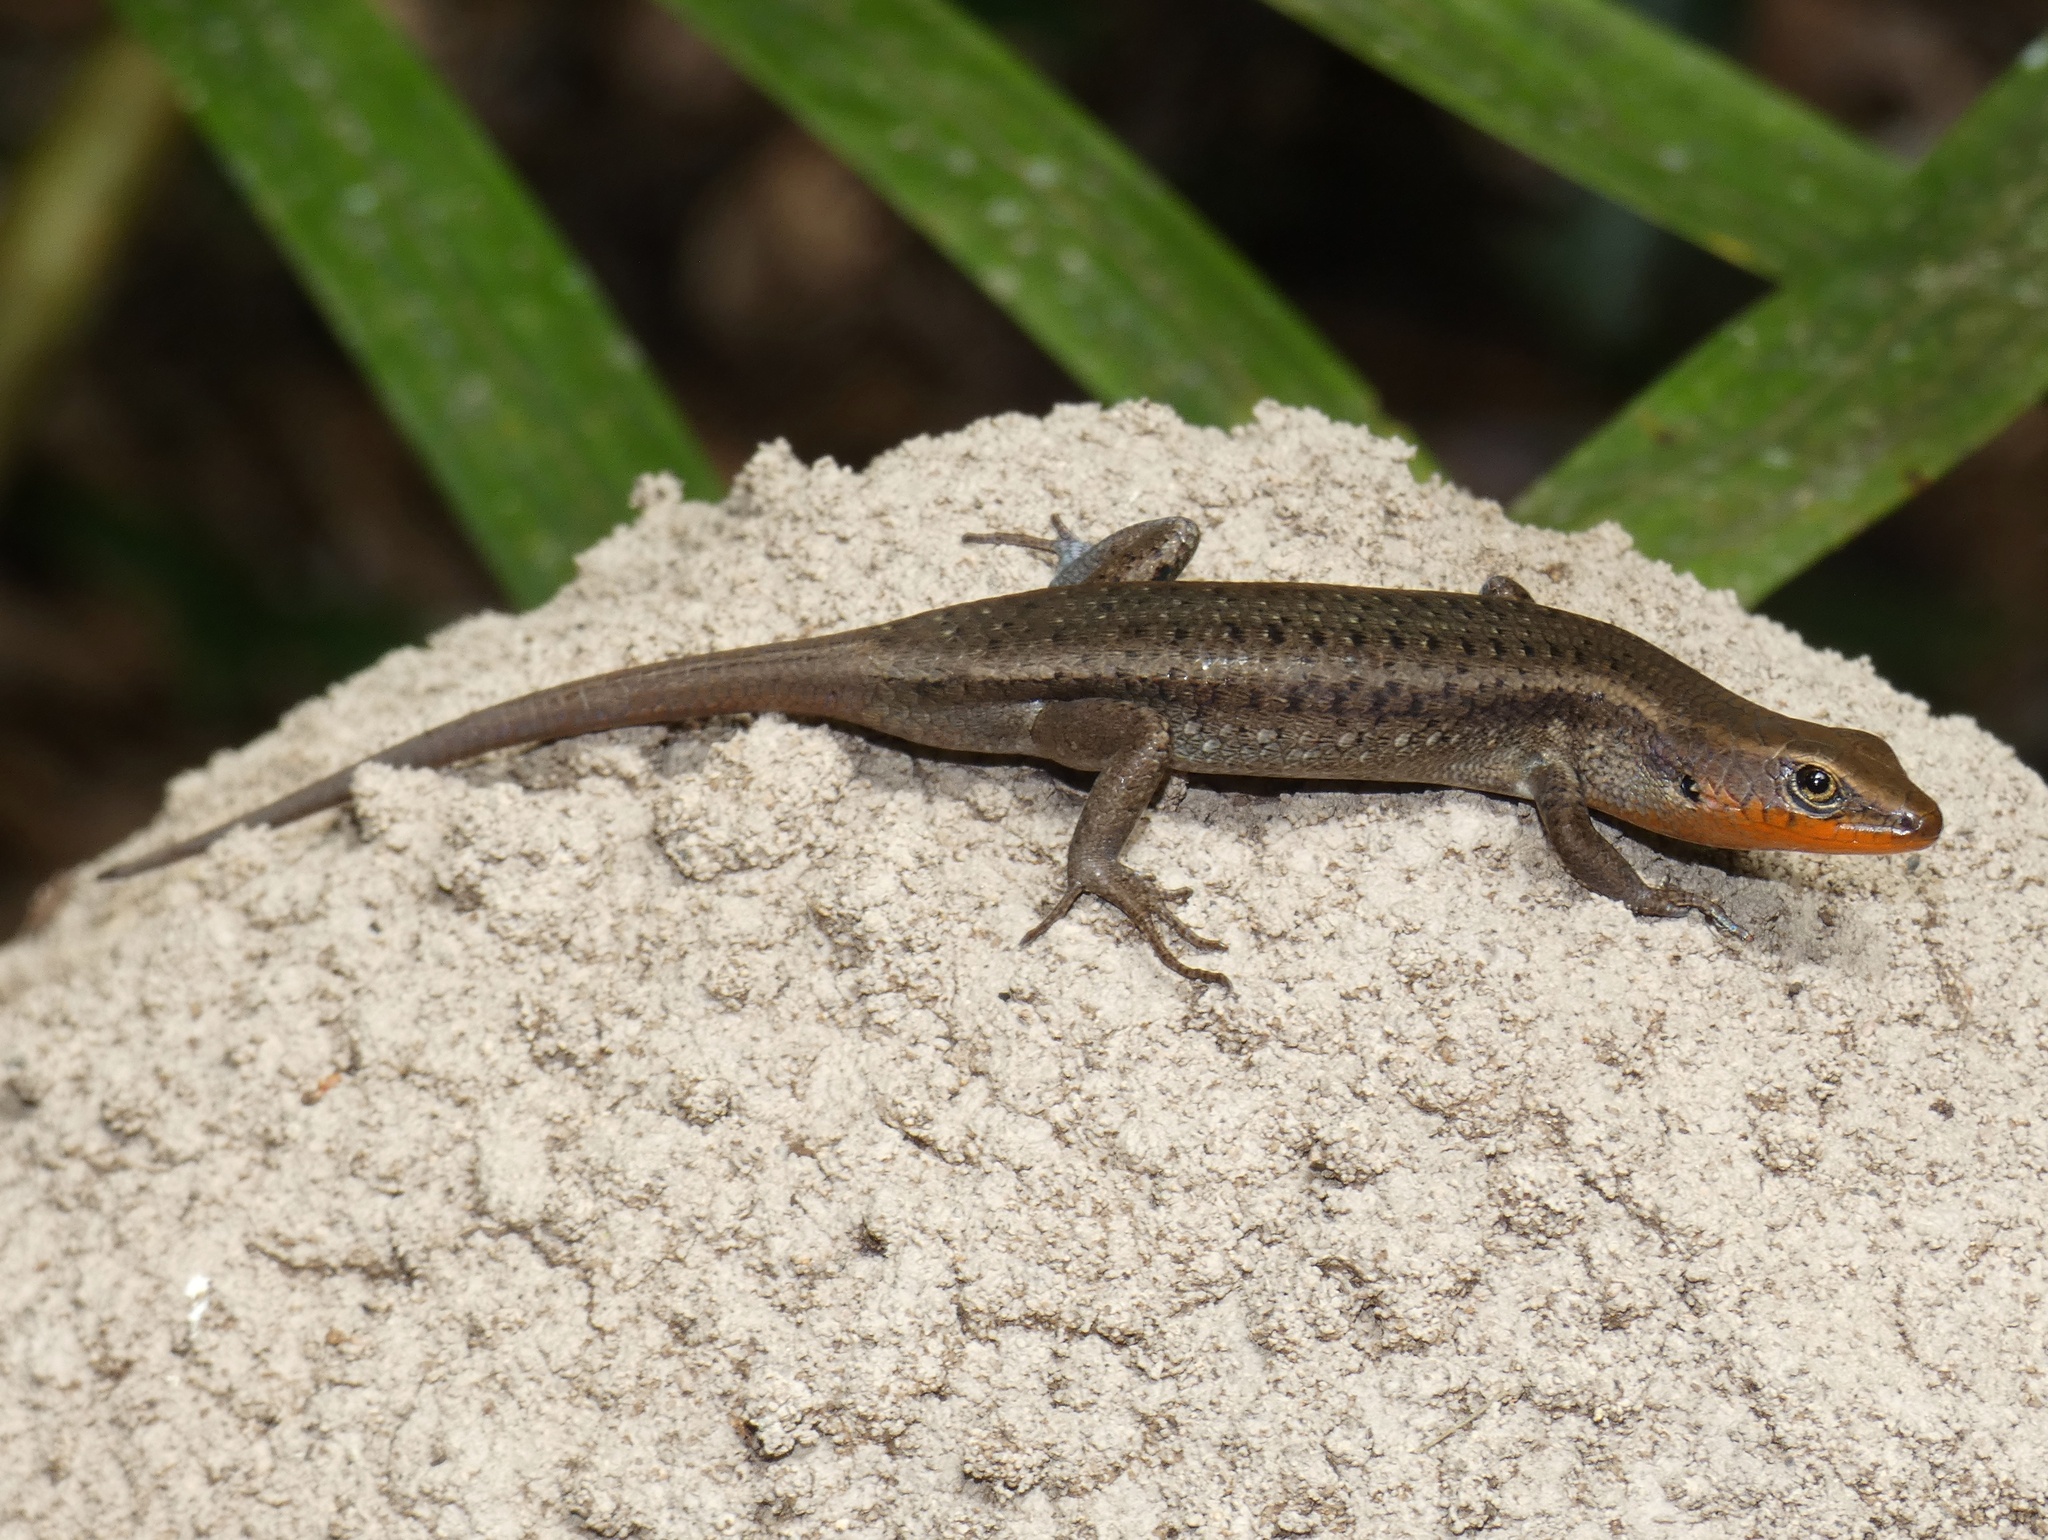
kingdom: Animalia
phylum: Chordata
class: Squamata
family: Scincidae
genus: Carlia
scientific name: Carlia crypta
